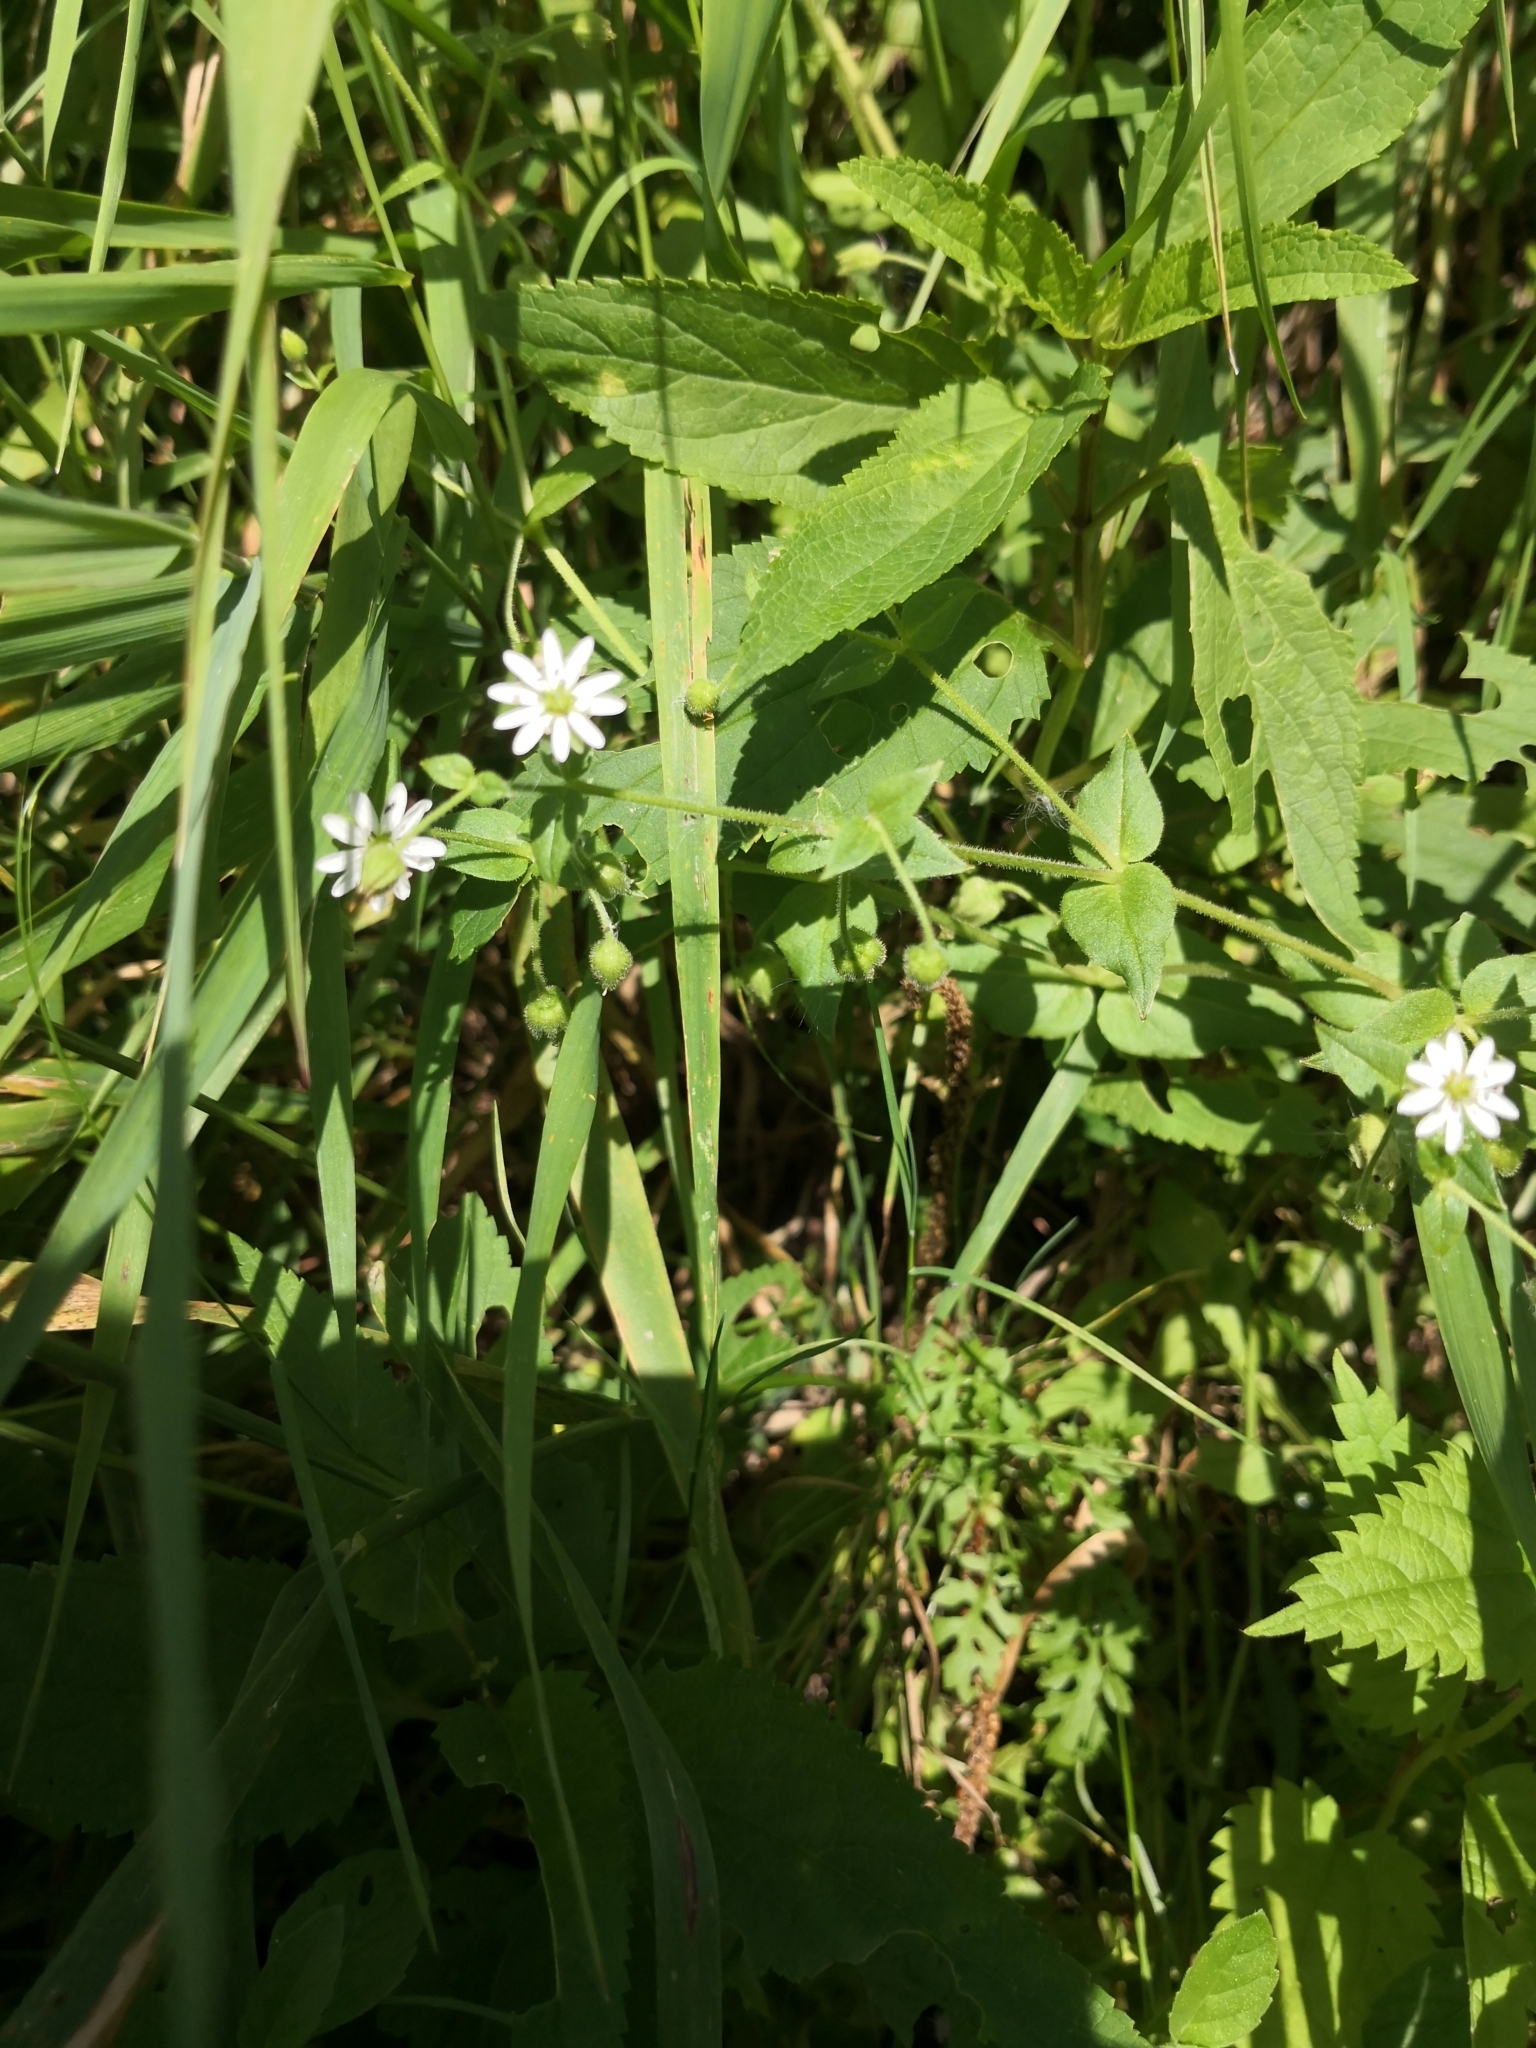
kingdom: Plantae
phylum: Tracheophyta
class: Magnoliopsida
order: Caryophyllales
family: Caryophyllaceae
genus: Stellaria
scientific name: Stellaria aquatica
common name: Water chickweed
